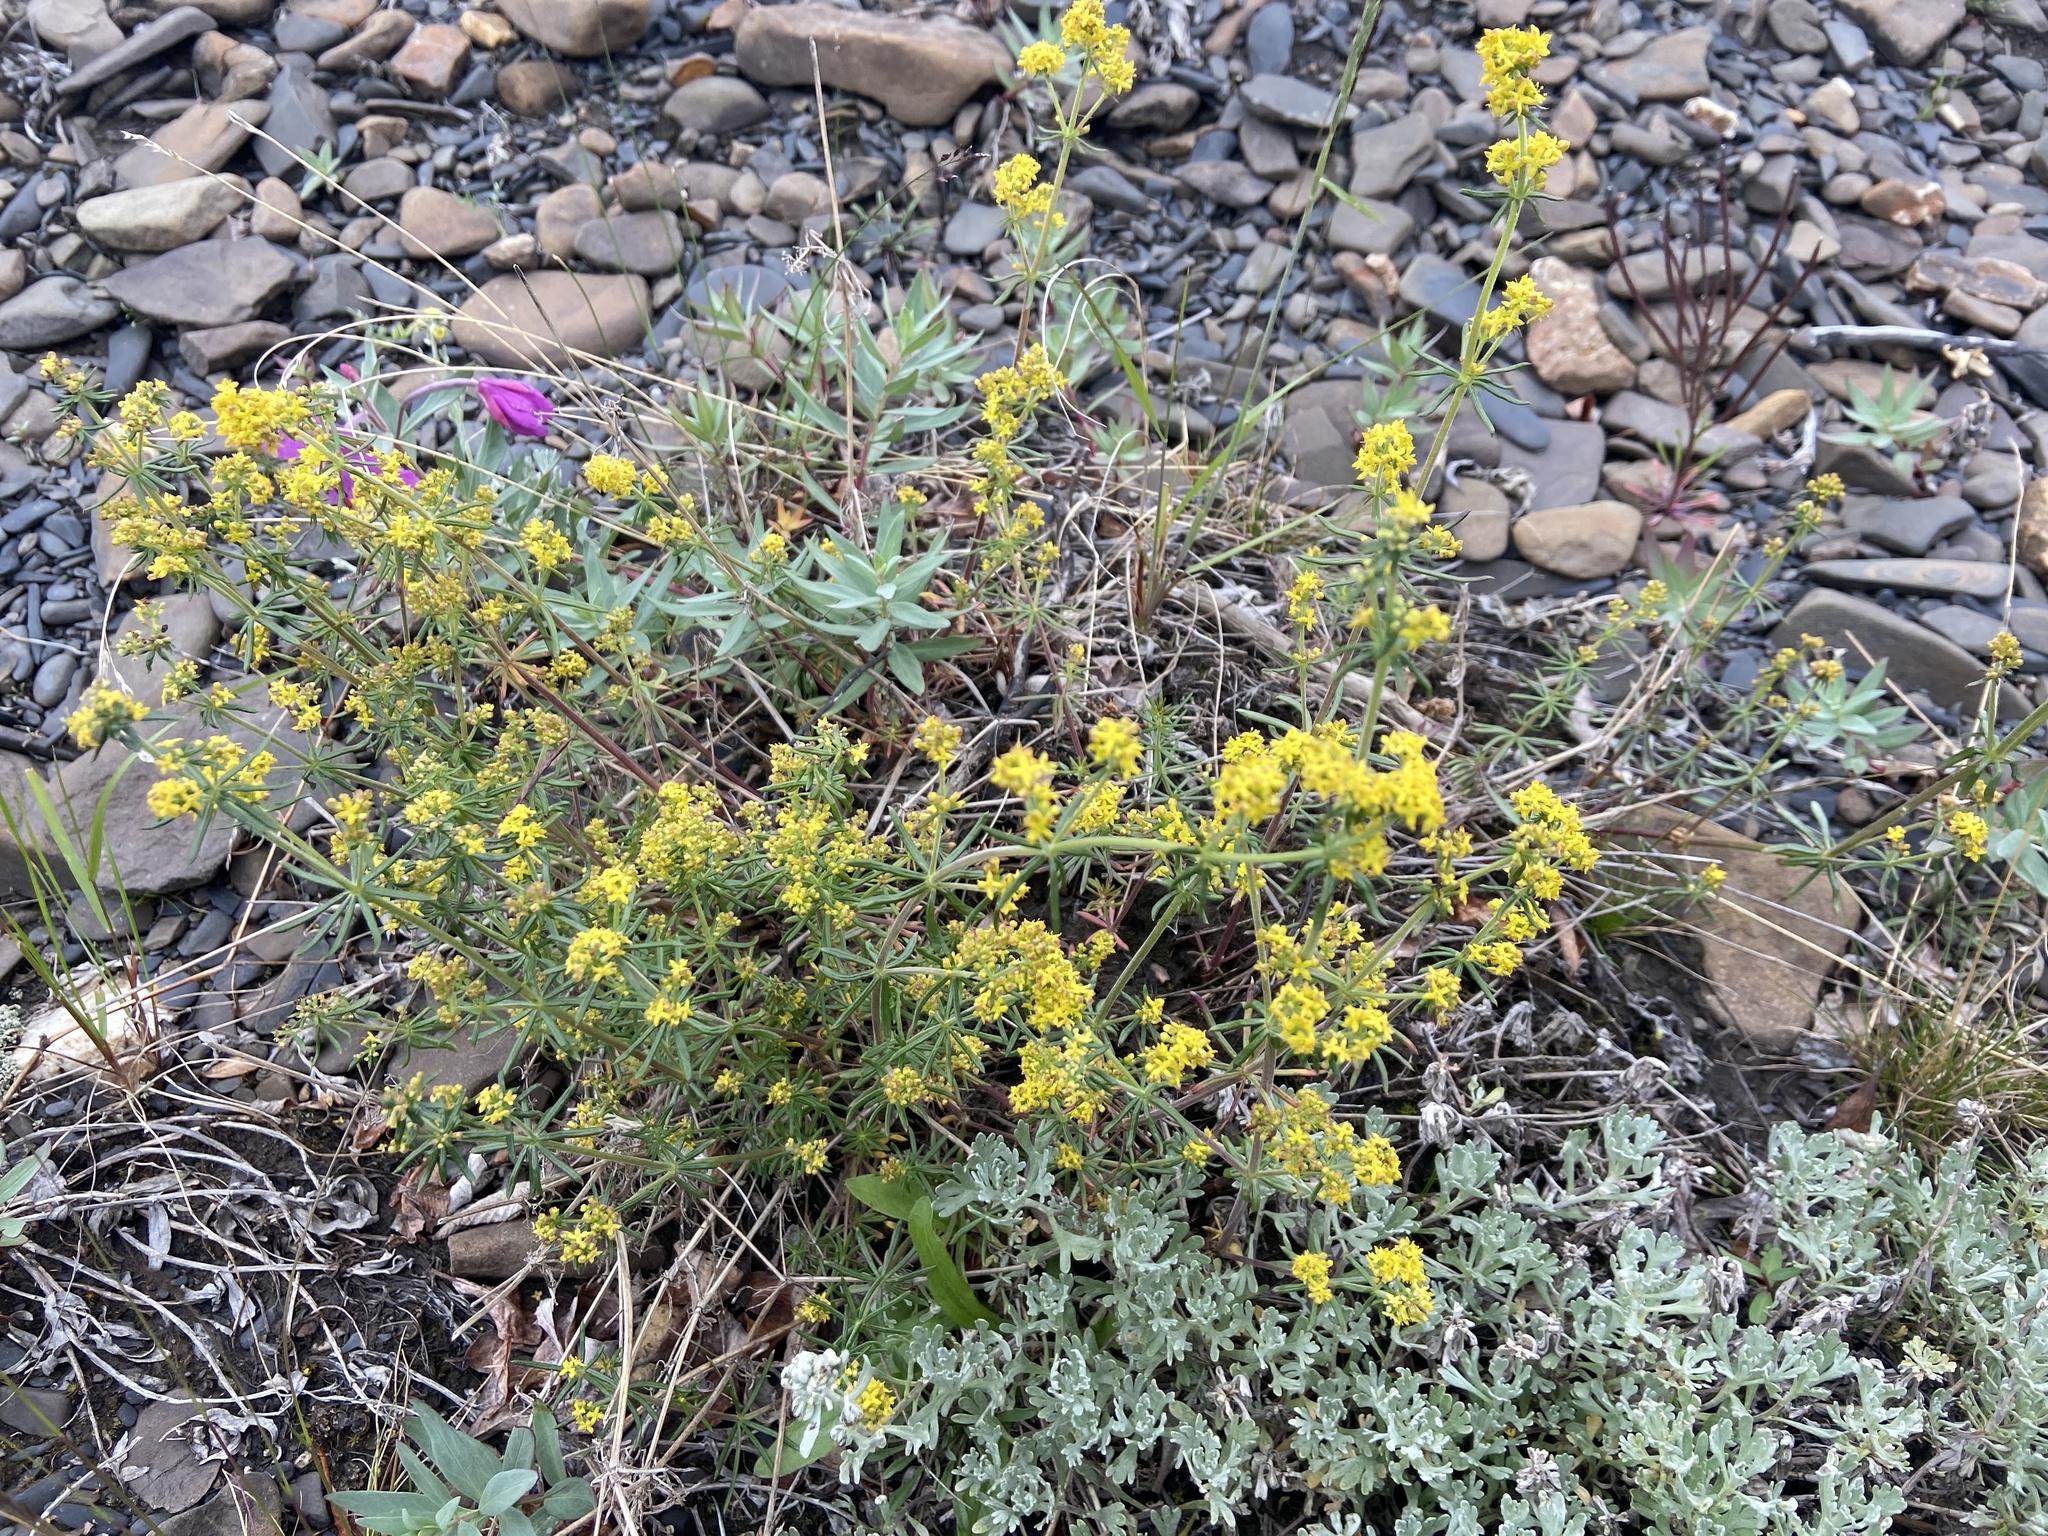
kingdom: Plantae
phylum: Tracheophyta
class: Magnoliopsida
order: Gentianales
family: Rubiaceae
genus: Galium
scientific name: Galium verum
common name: Lady's bedstraw
